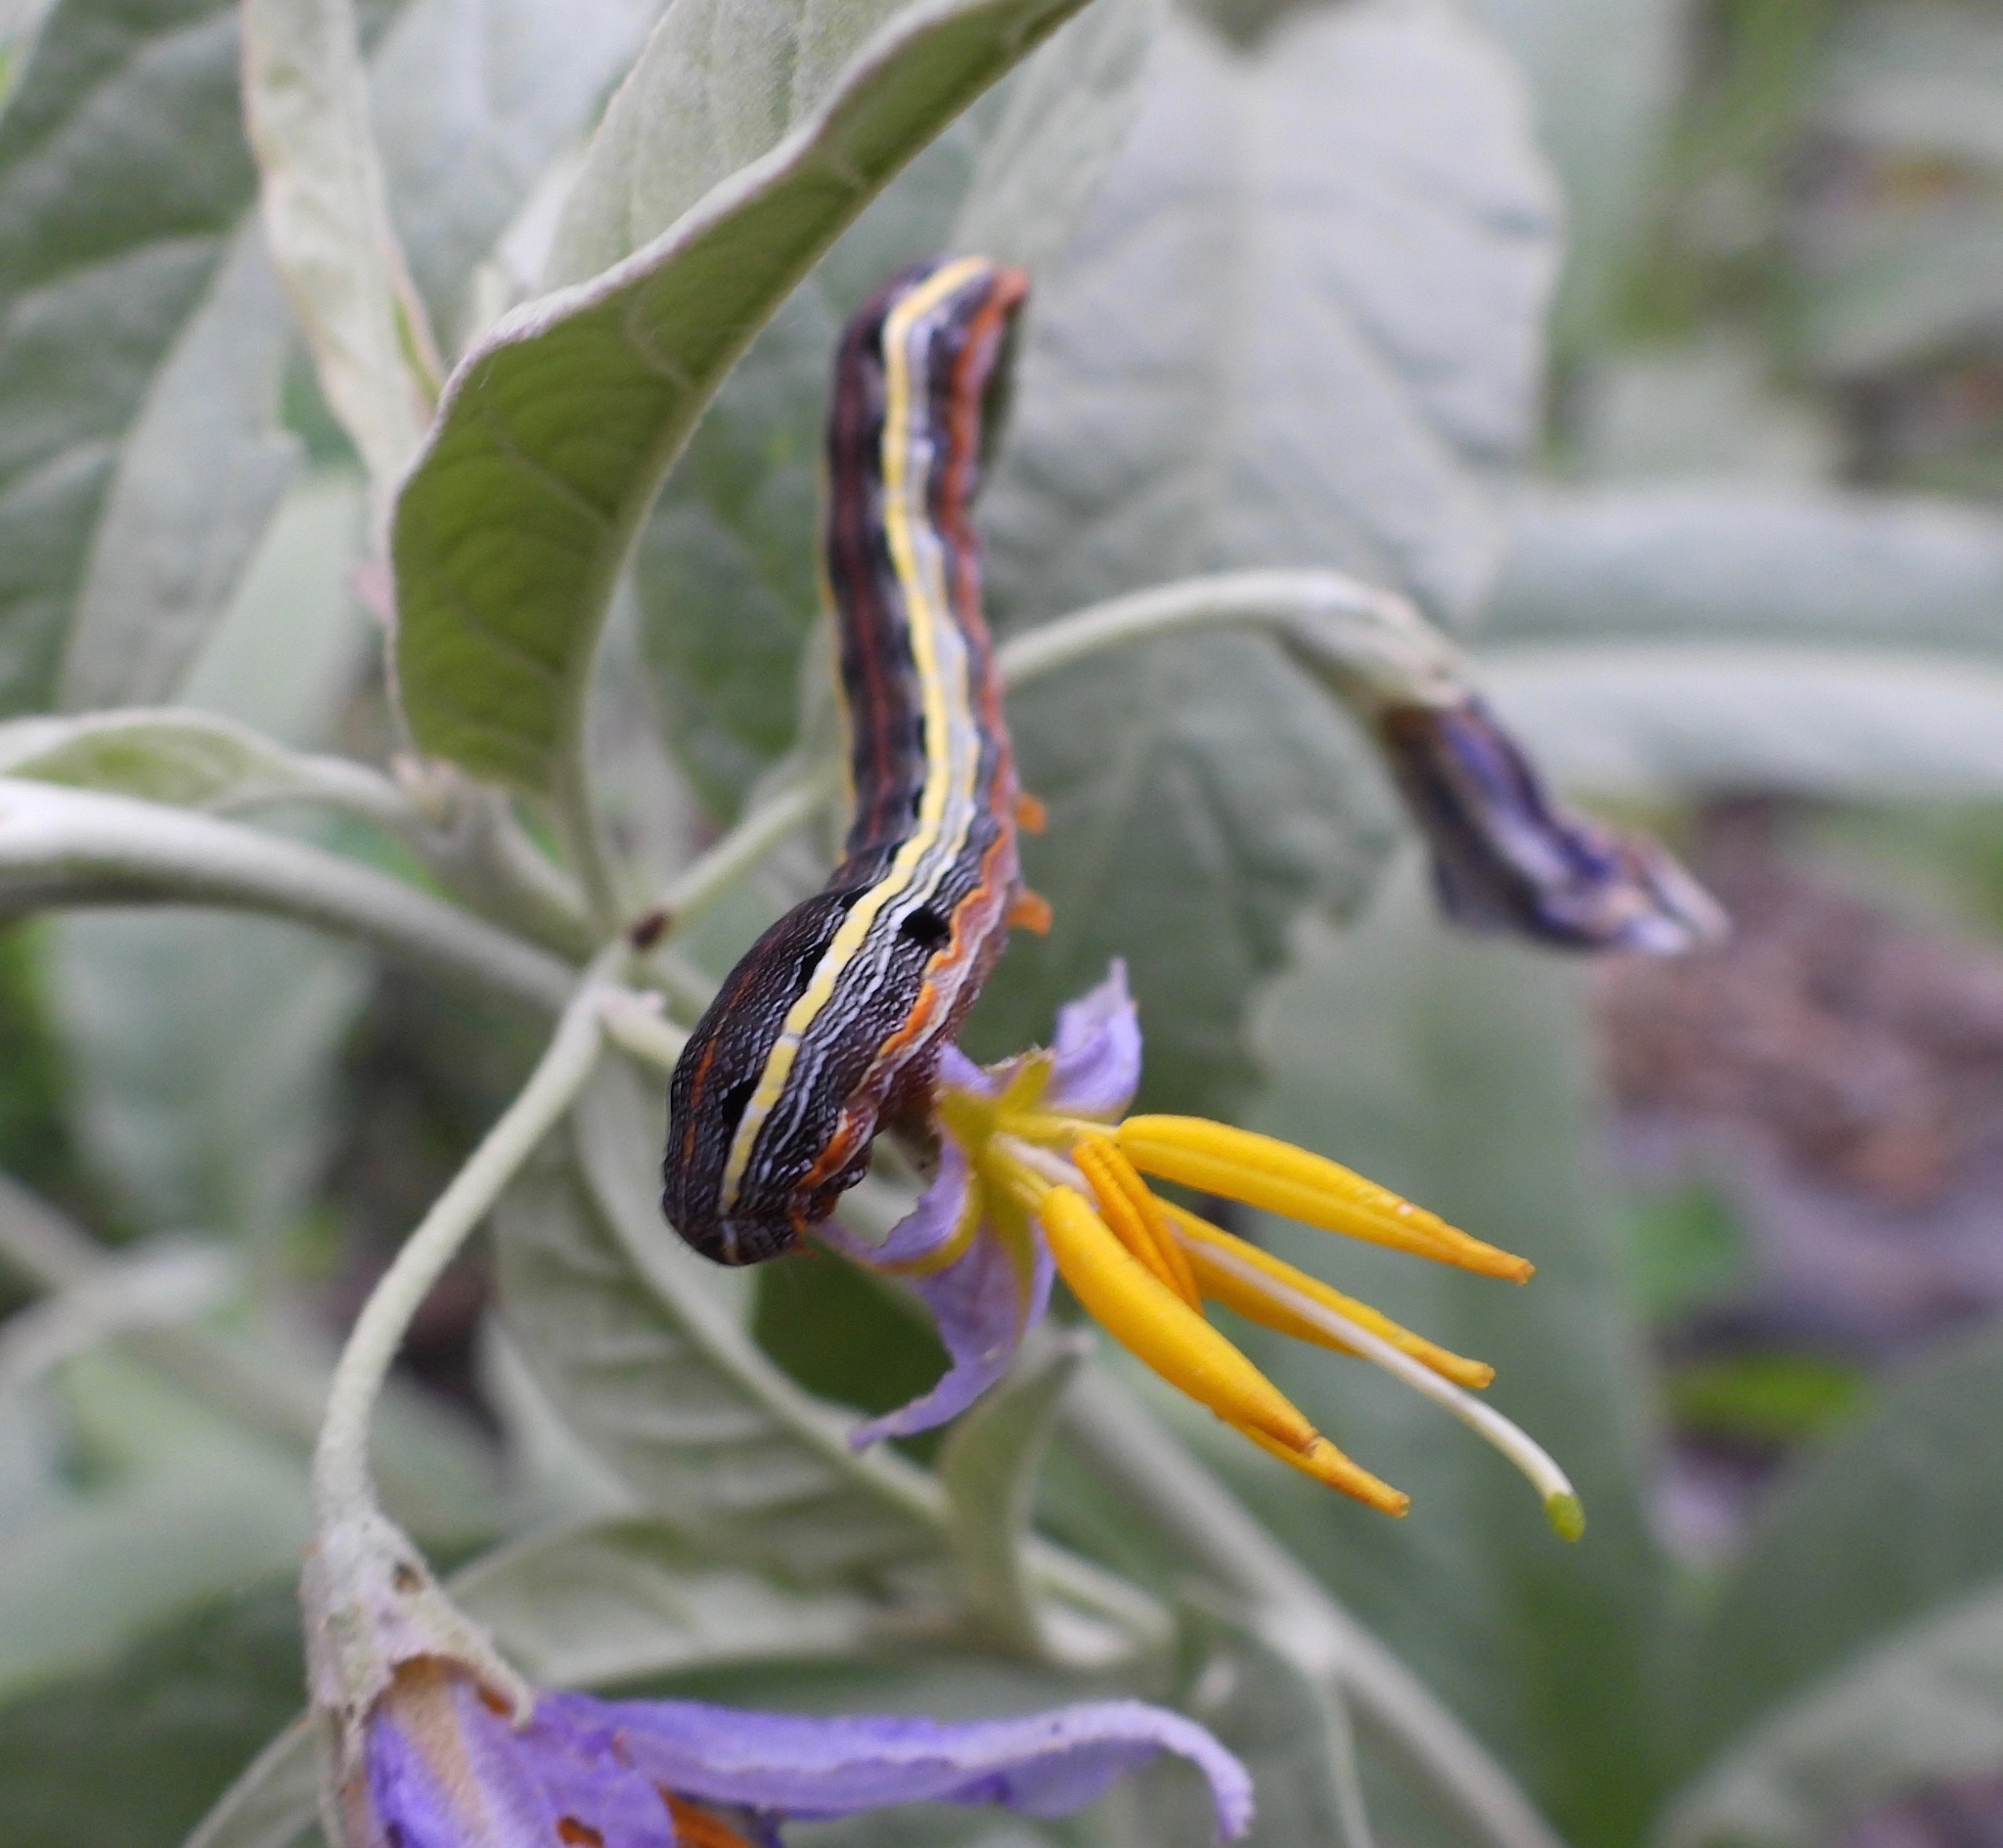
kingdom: Animalia
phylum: Arthropoda
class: Insecta
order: Lepidoptera
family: Noctuidae
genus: Spodoptera
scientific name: Spodoptera ornithogalli
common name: Yellow-striped armyworm
